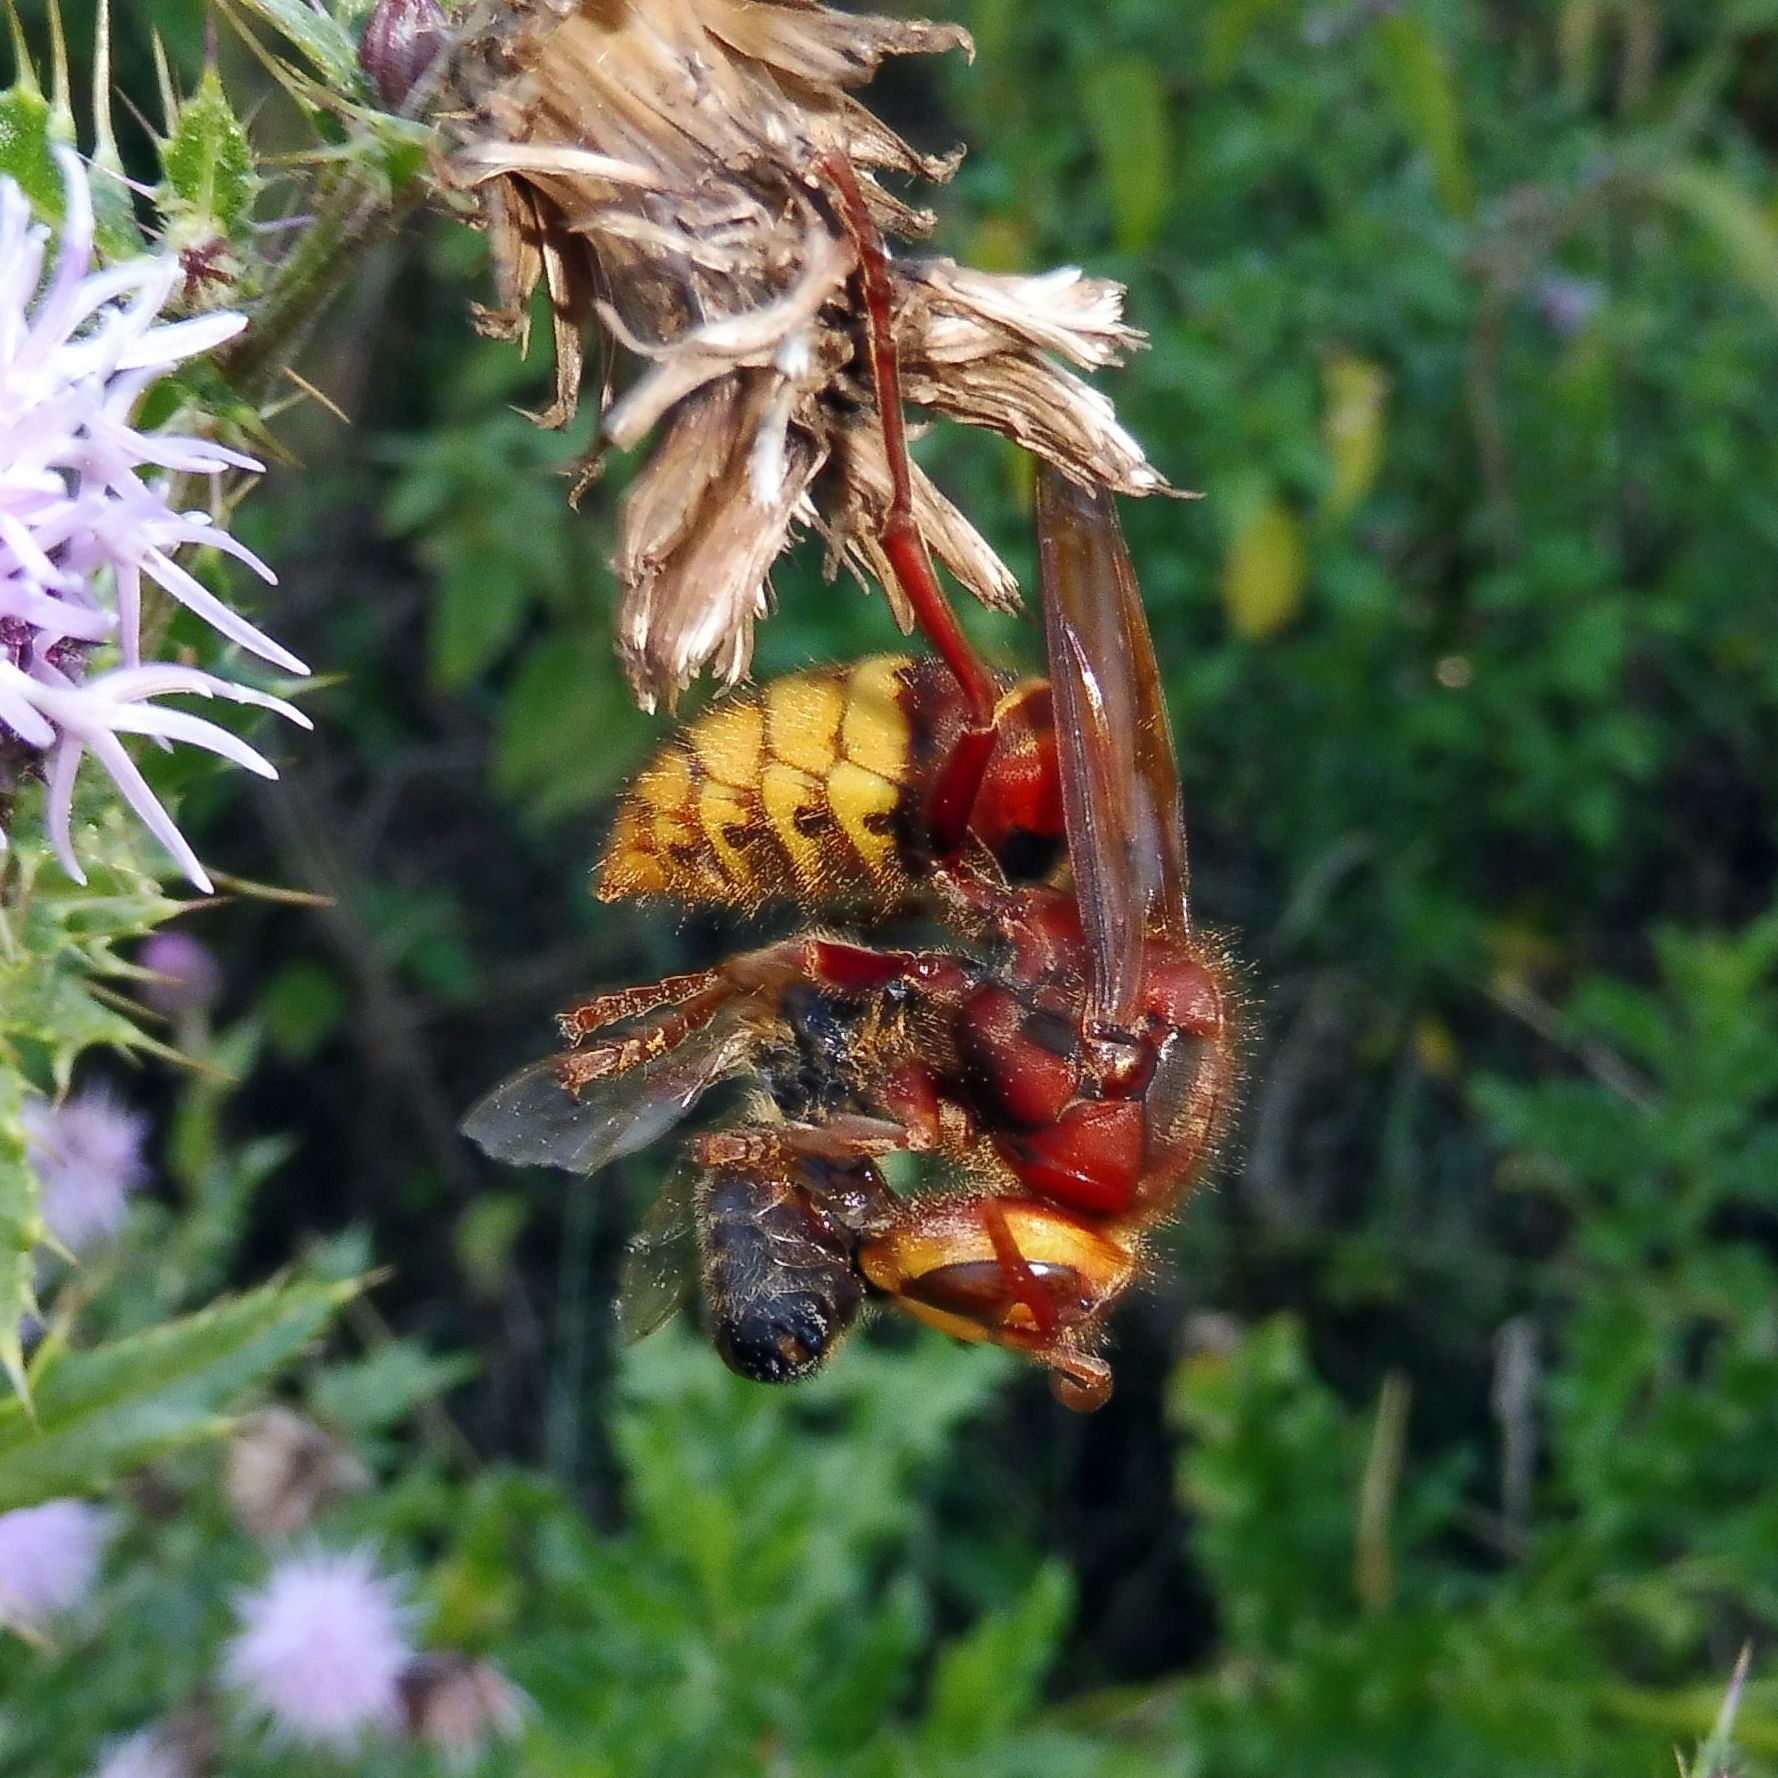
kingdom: Animalia
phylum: Arthropoda
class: Insecta
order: Hymenoptera
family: Vespidae
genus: Vespa
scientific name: Vespa crabro
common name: Hornet
